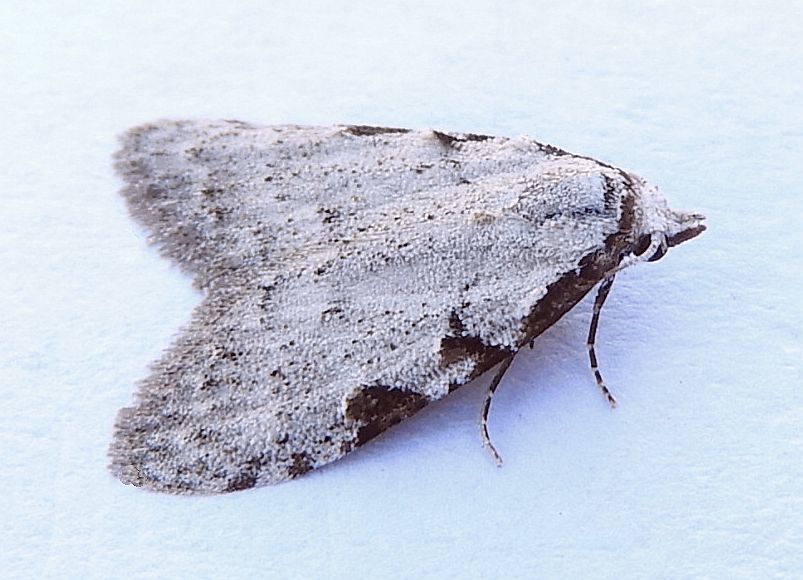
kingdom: Animalia
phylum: Arthropoda
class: Insecta
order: Lepidoptera
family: Nolidae
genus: Nola
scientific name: Nola triquetrana
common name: Three-spotted nola moth
